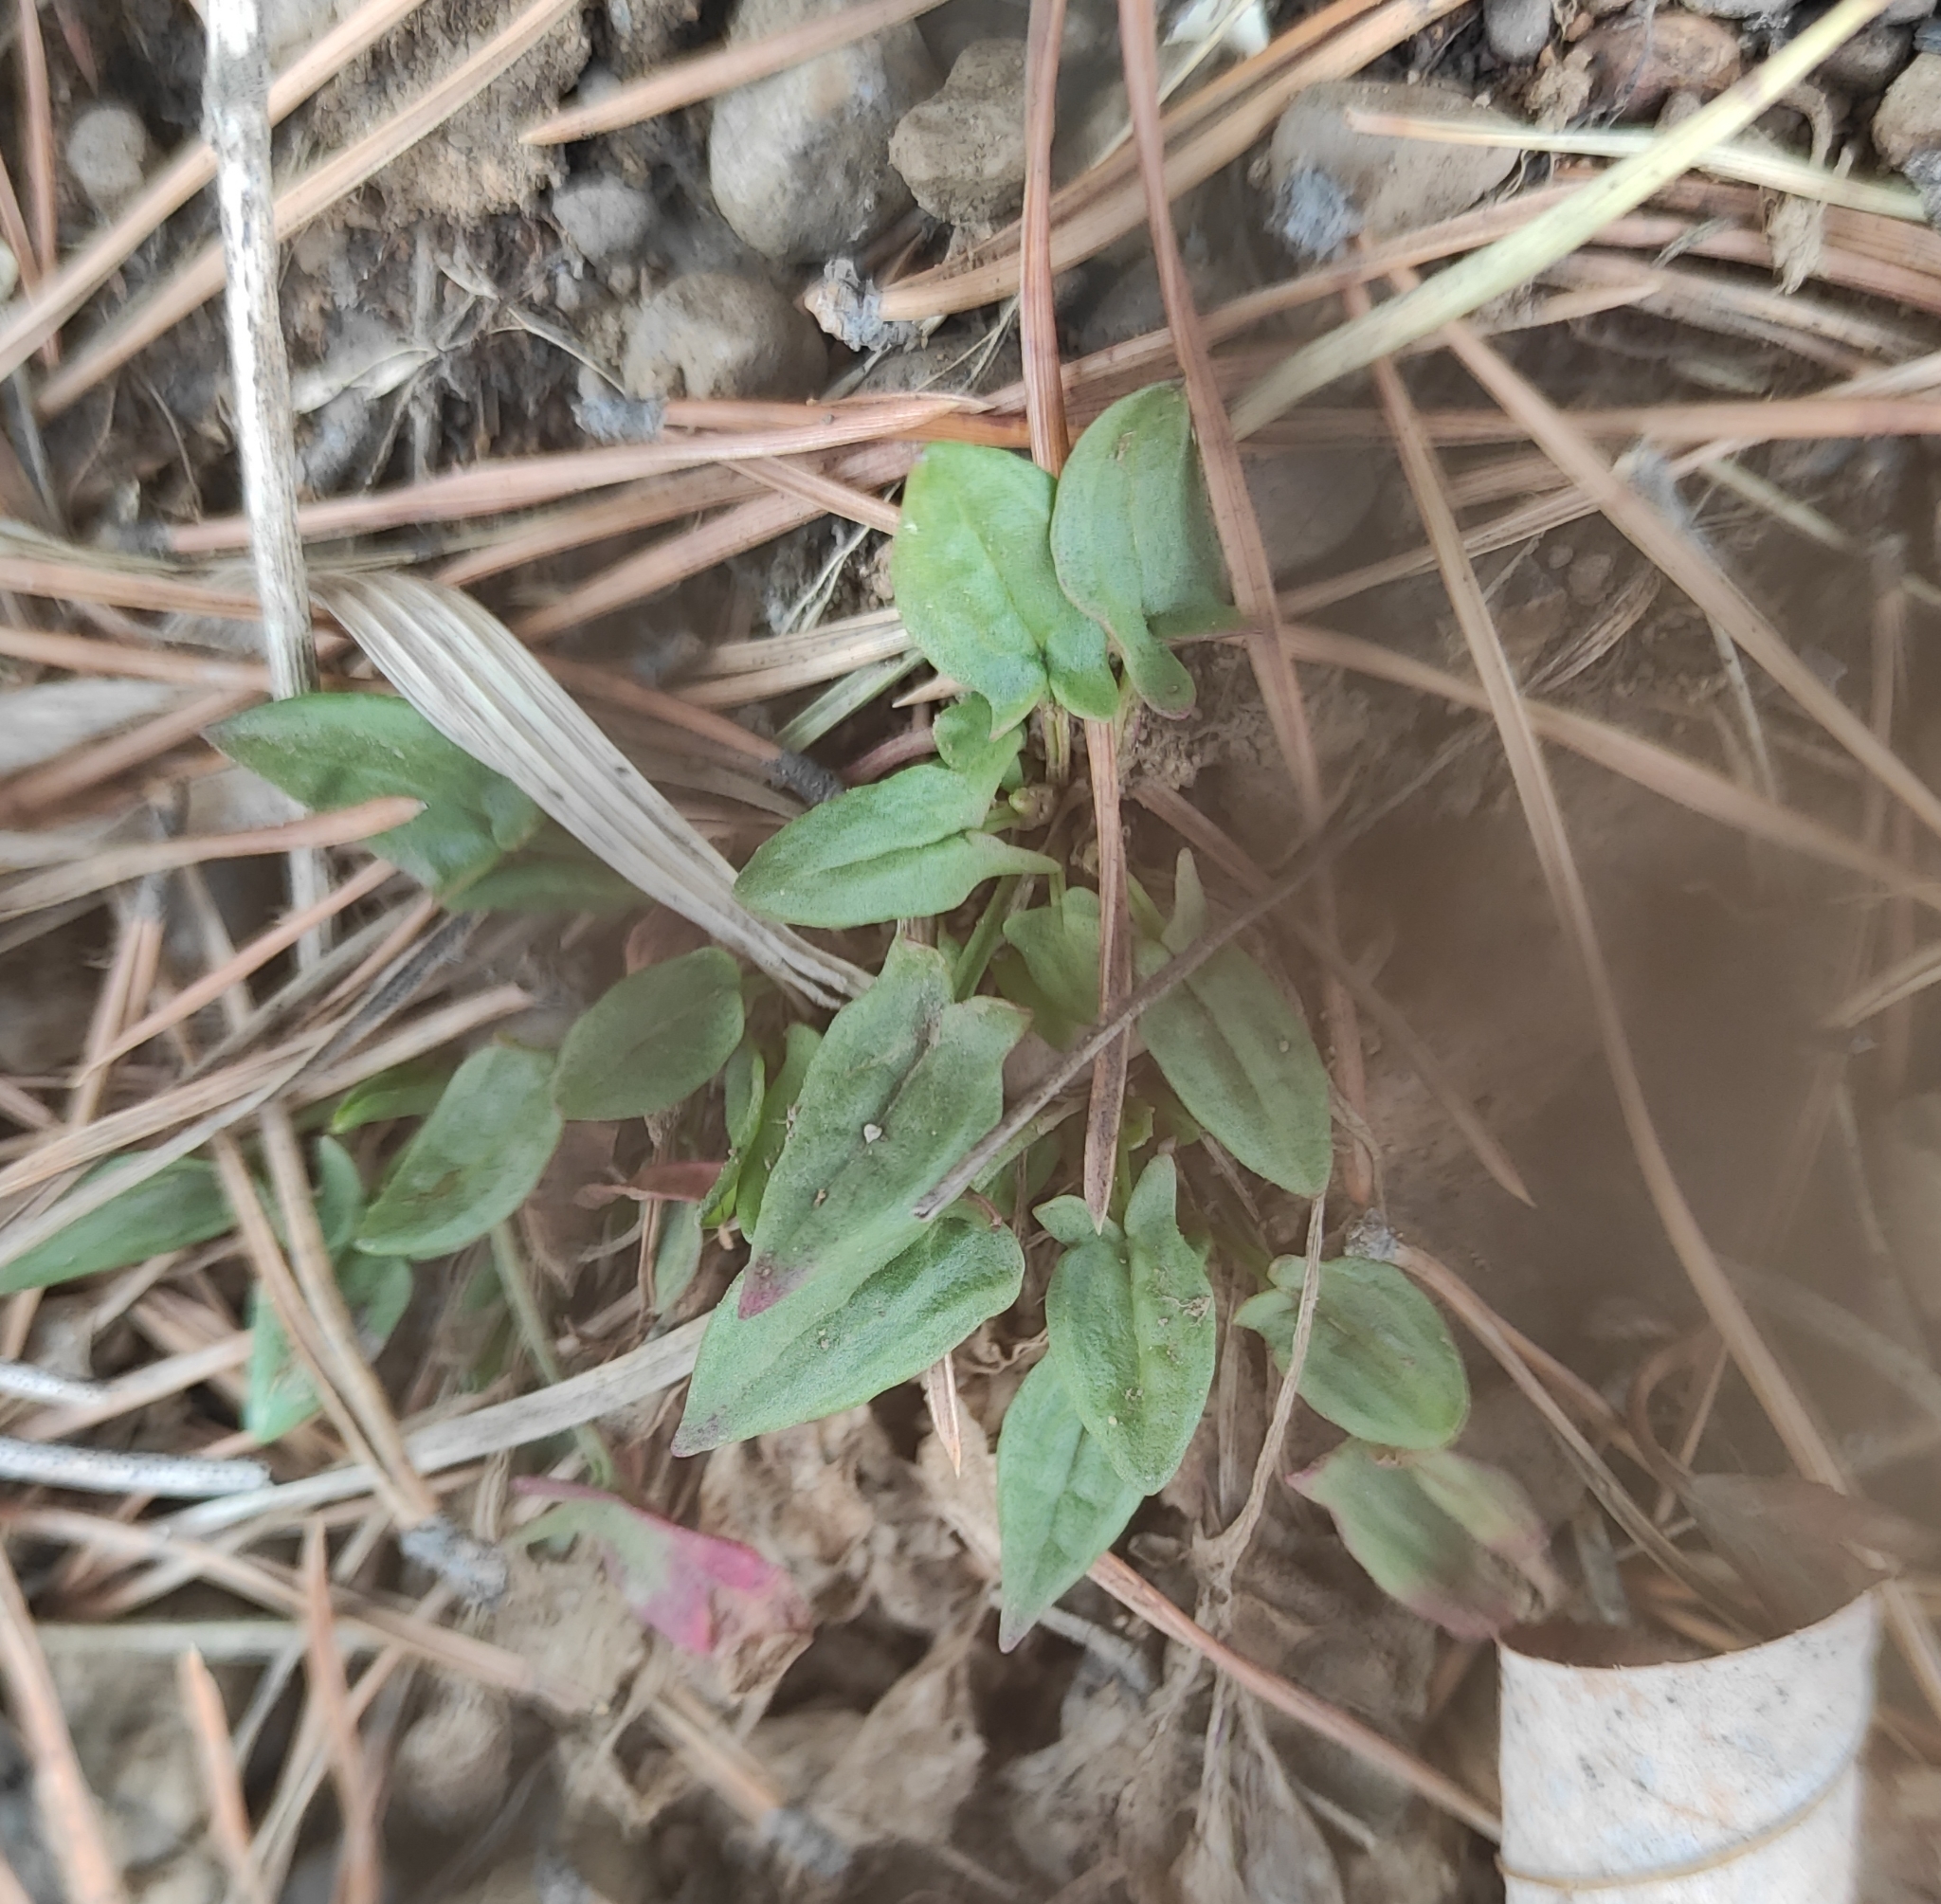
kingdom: Plantae
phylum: Tracheophyta
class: Magnoliopsida
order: Caryophyllales
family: Polygonaceae
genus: Rumex
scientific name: Rumex acetosella
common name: Common sheep sorrel
